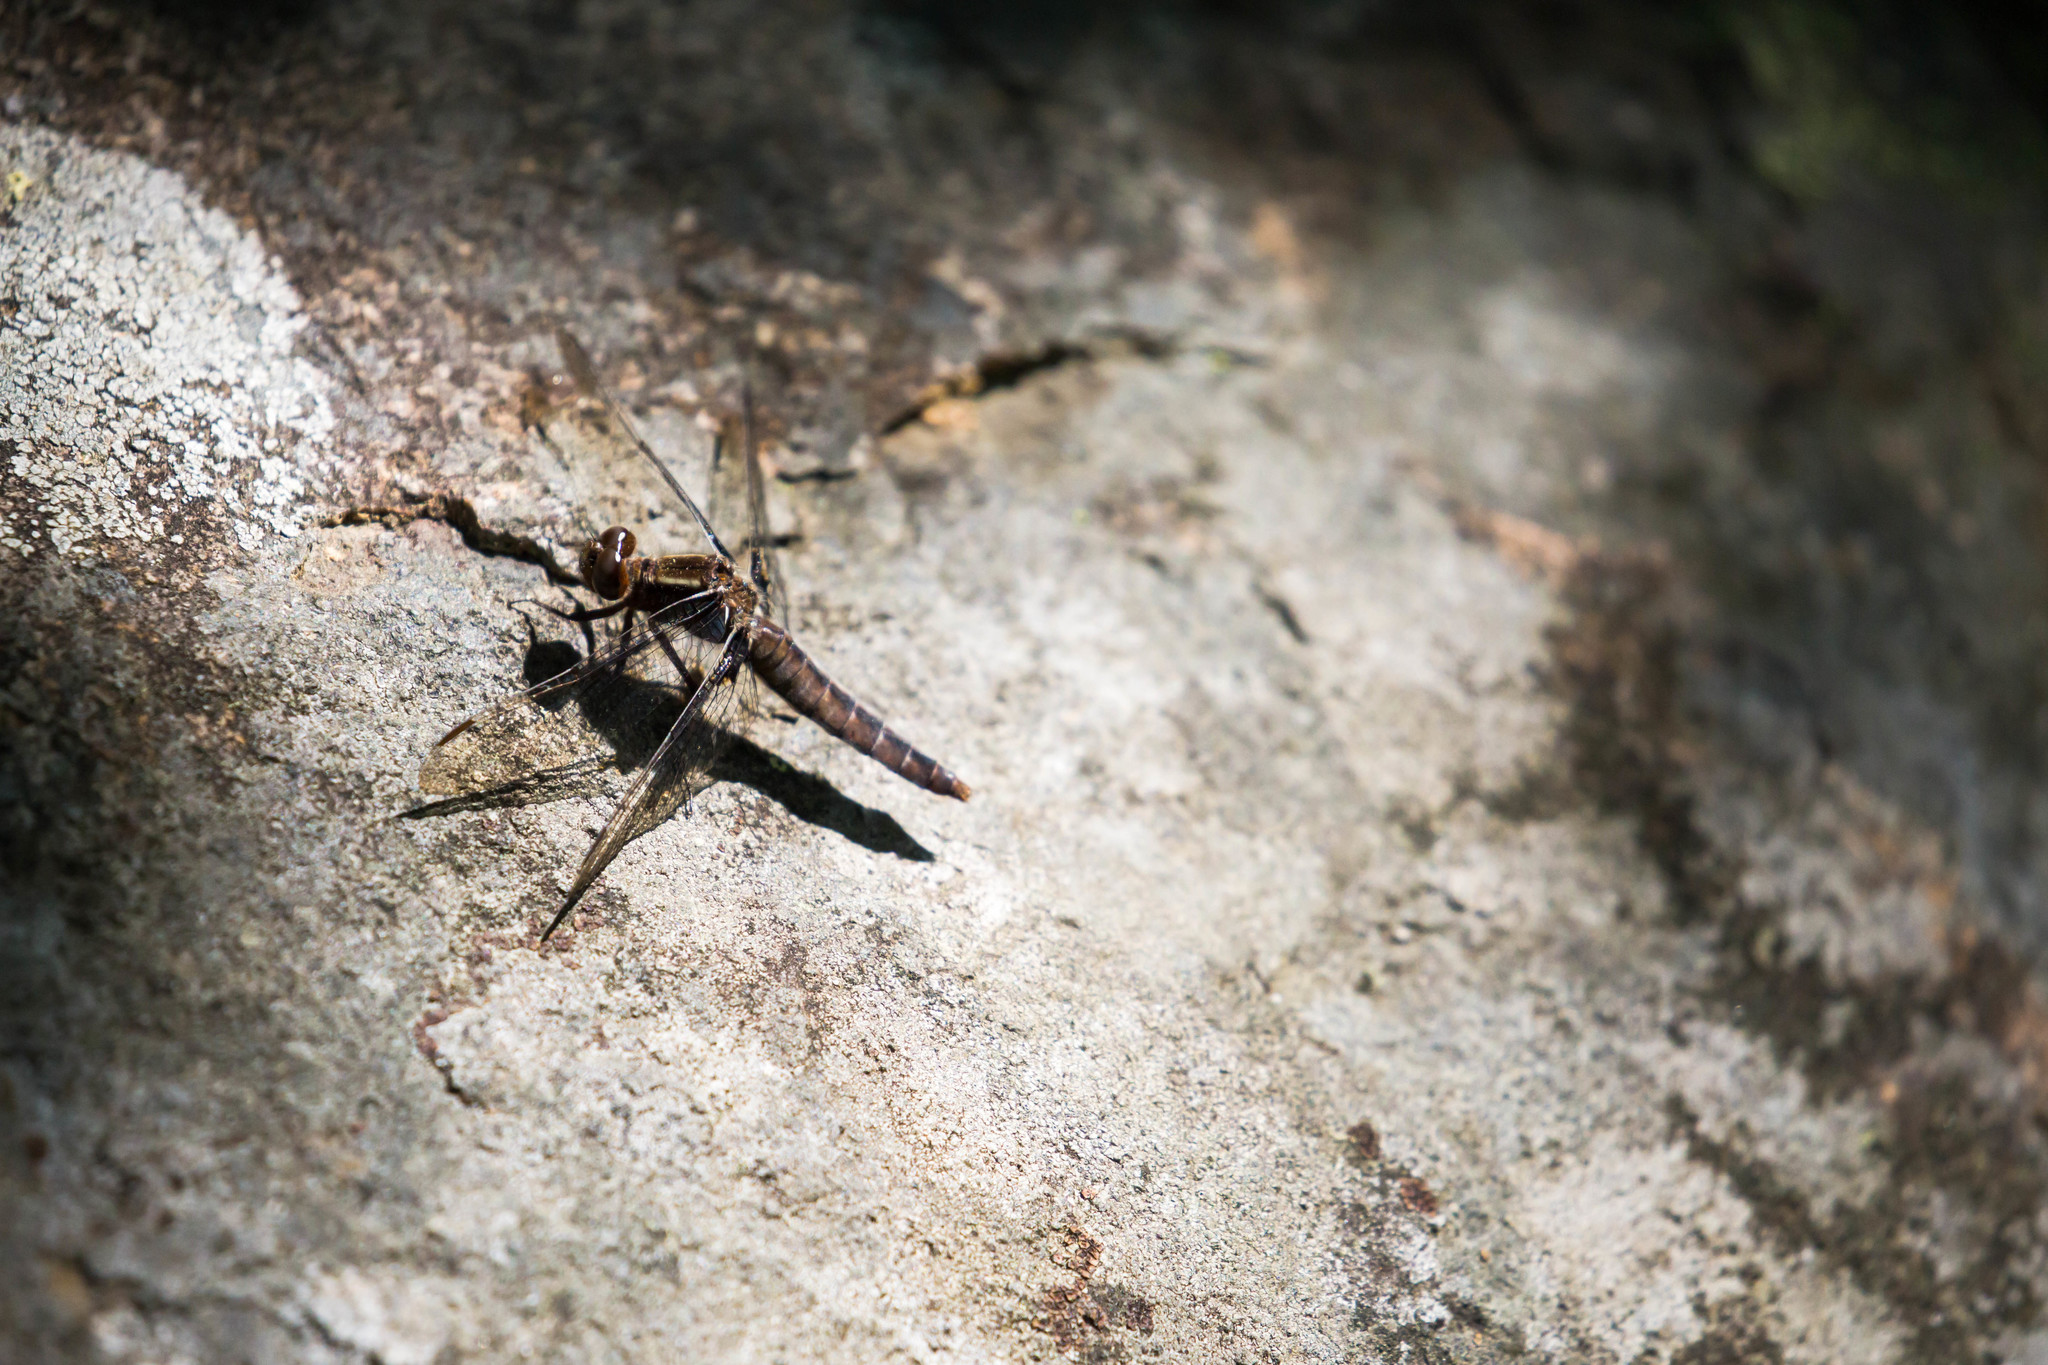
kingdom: Animalia
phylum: Arthropoda
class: Insecta
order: Odonata
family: Libellulidae
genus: Ladona
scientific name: Ladona julia
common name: Chalk-fronted corporal
